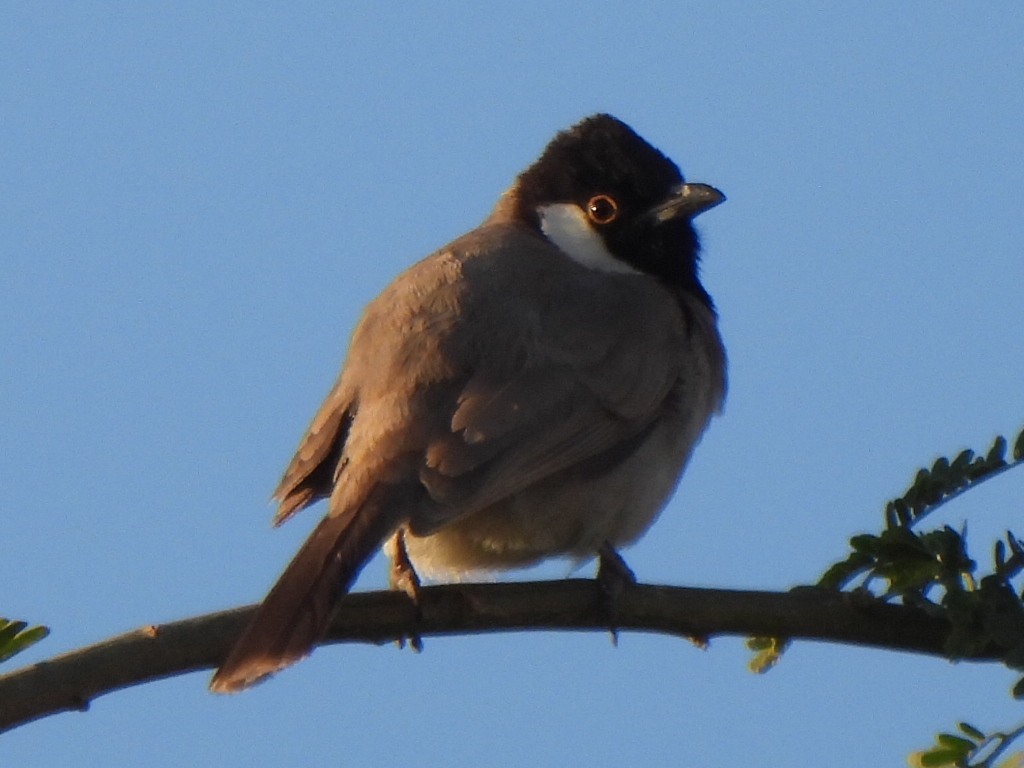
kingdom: Animalia
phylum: Chordata
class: Aves
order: Passeriformes
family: Pycnonotidae
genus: Pycnonotus
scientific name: Pycnonotus leucotis
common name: White-eared bulbul
